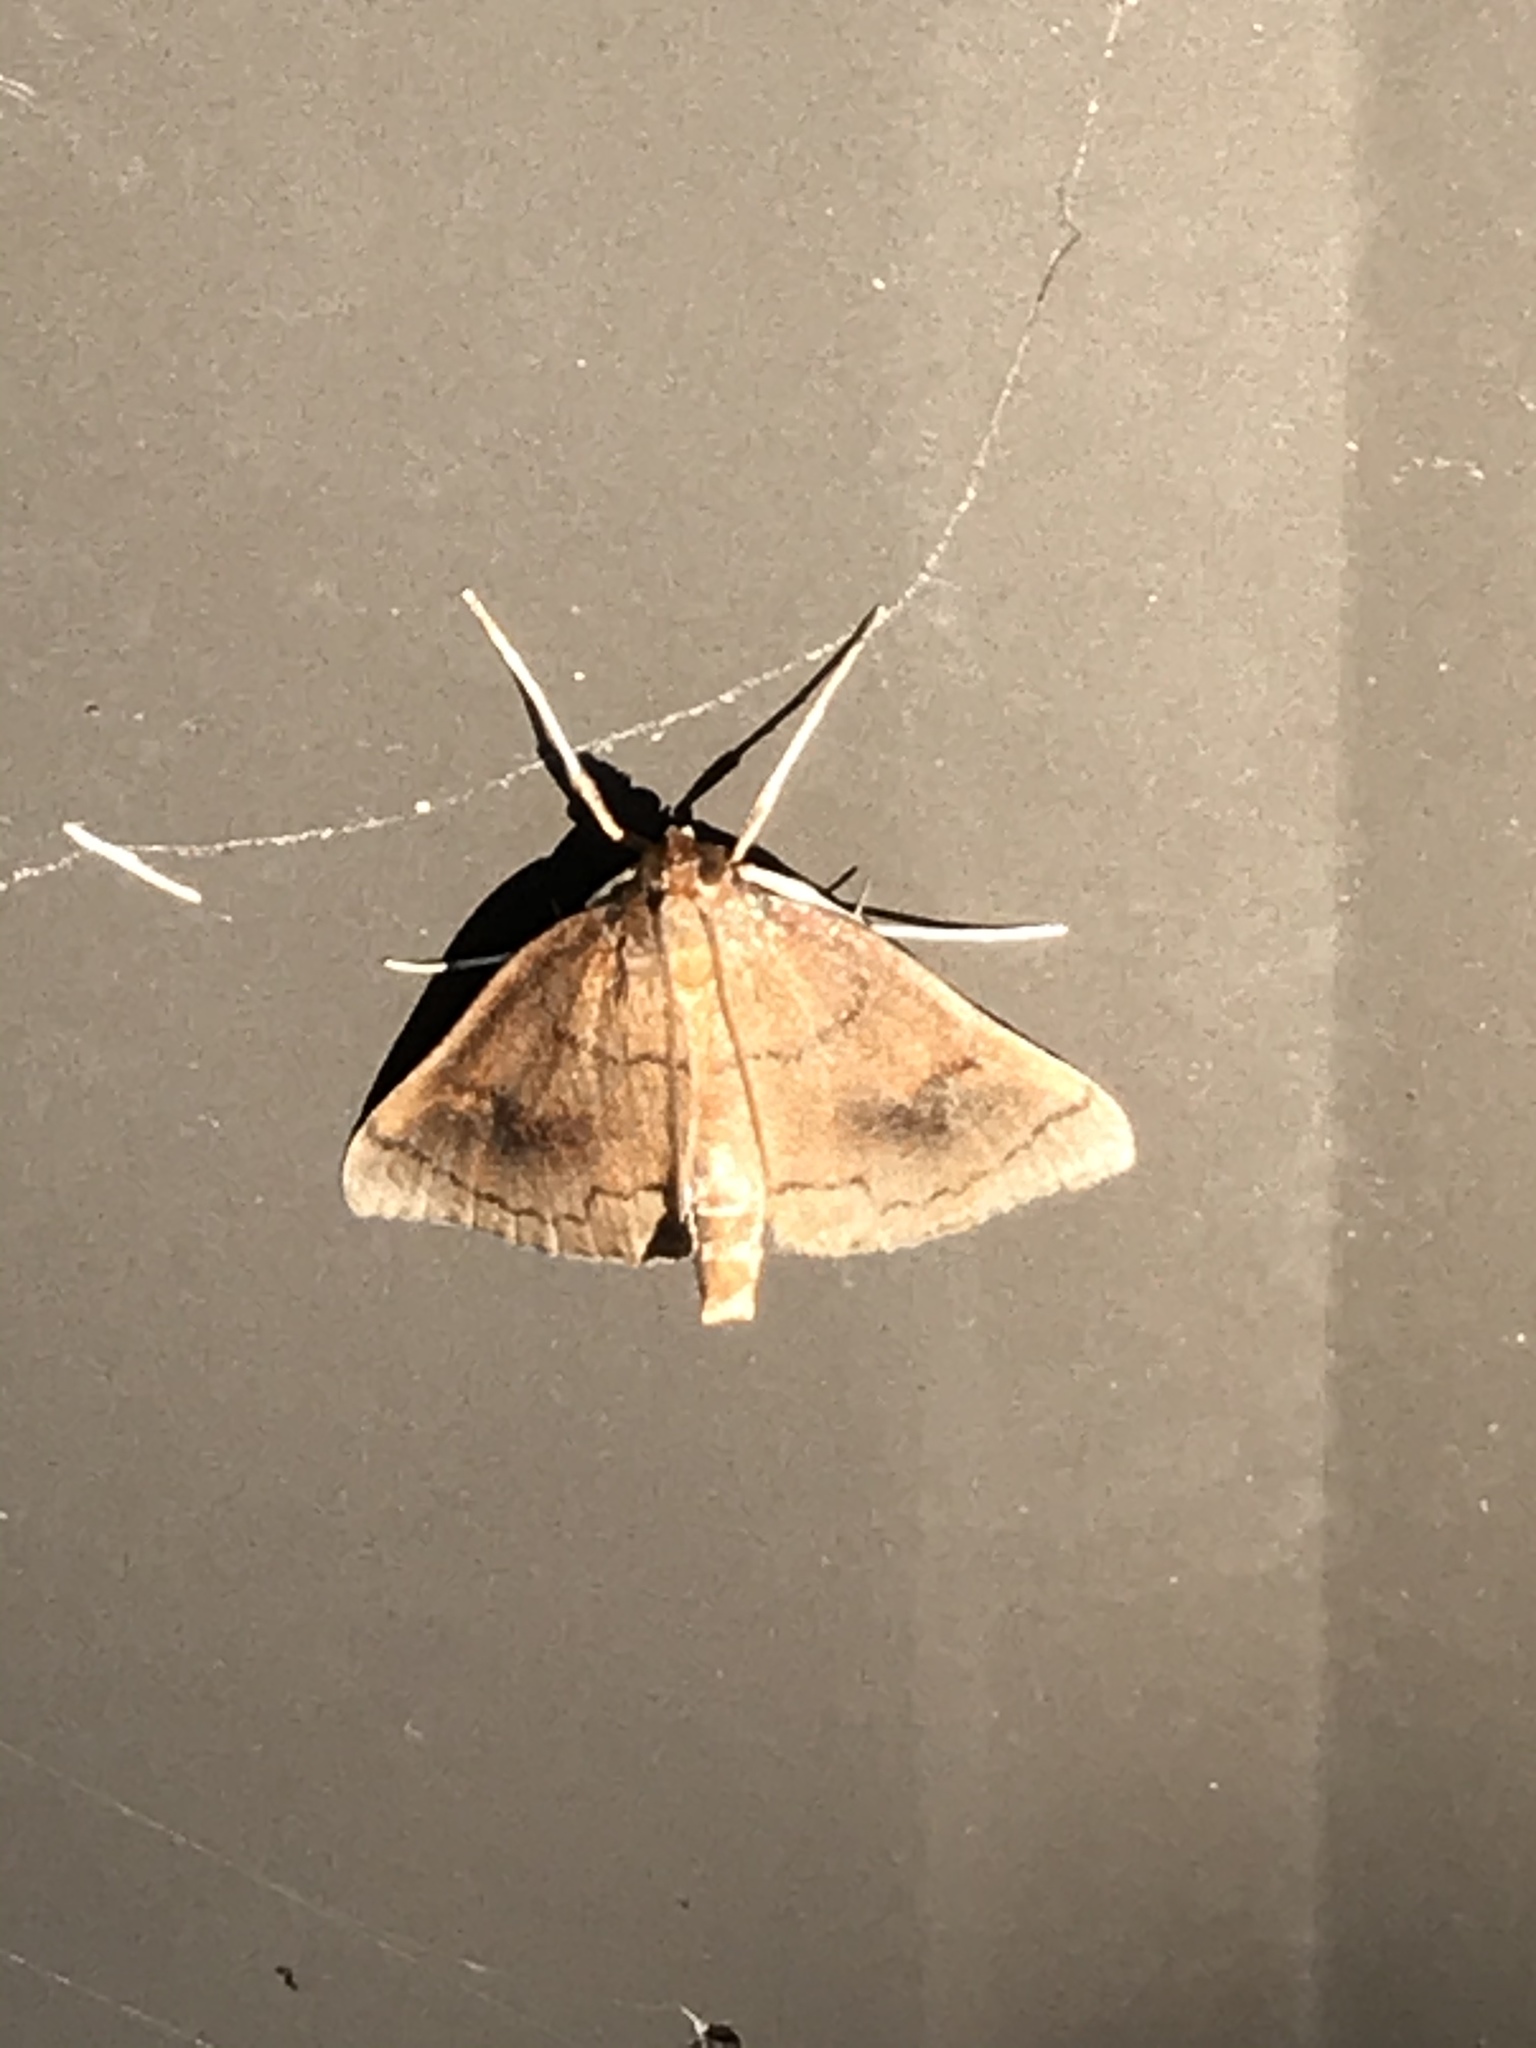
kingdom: Animalia
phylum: Arthropoda
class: Insecta
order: Lepidoptera
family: Crambidae
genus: Fumibotys
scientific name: Fumibotys fumalis
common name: Mint root borer moth
